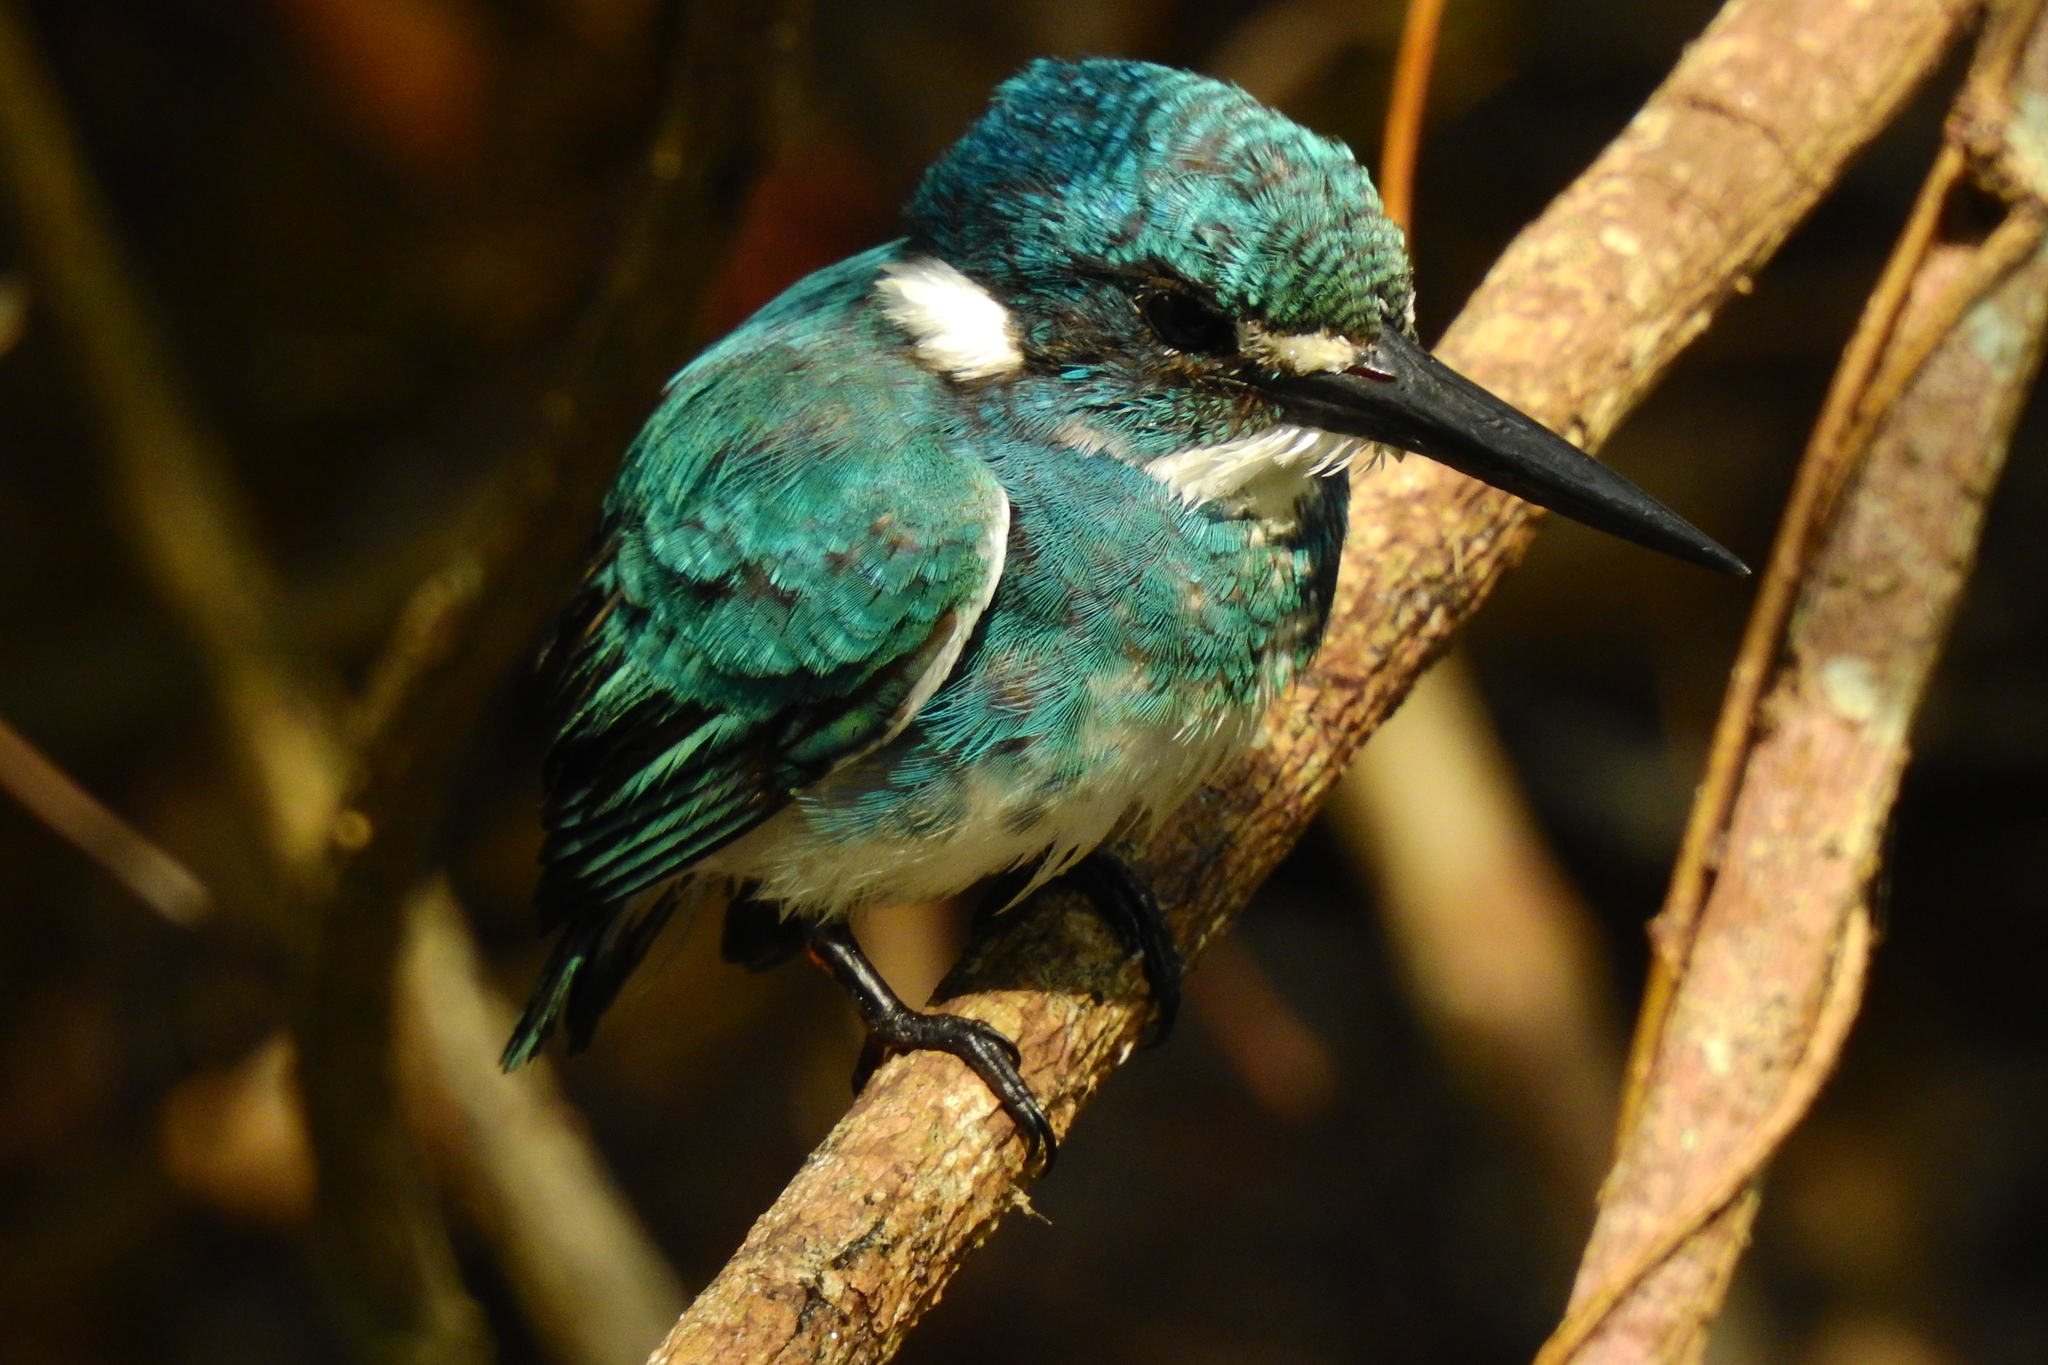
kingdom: Animalia
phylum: Chordata
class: Aves
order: Coraciiformes
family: Alcedinidae
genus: Alcedo
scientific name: Alcedo coerulescens
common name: Cerulean kingfisher
